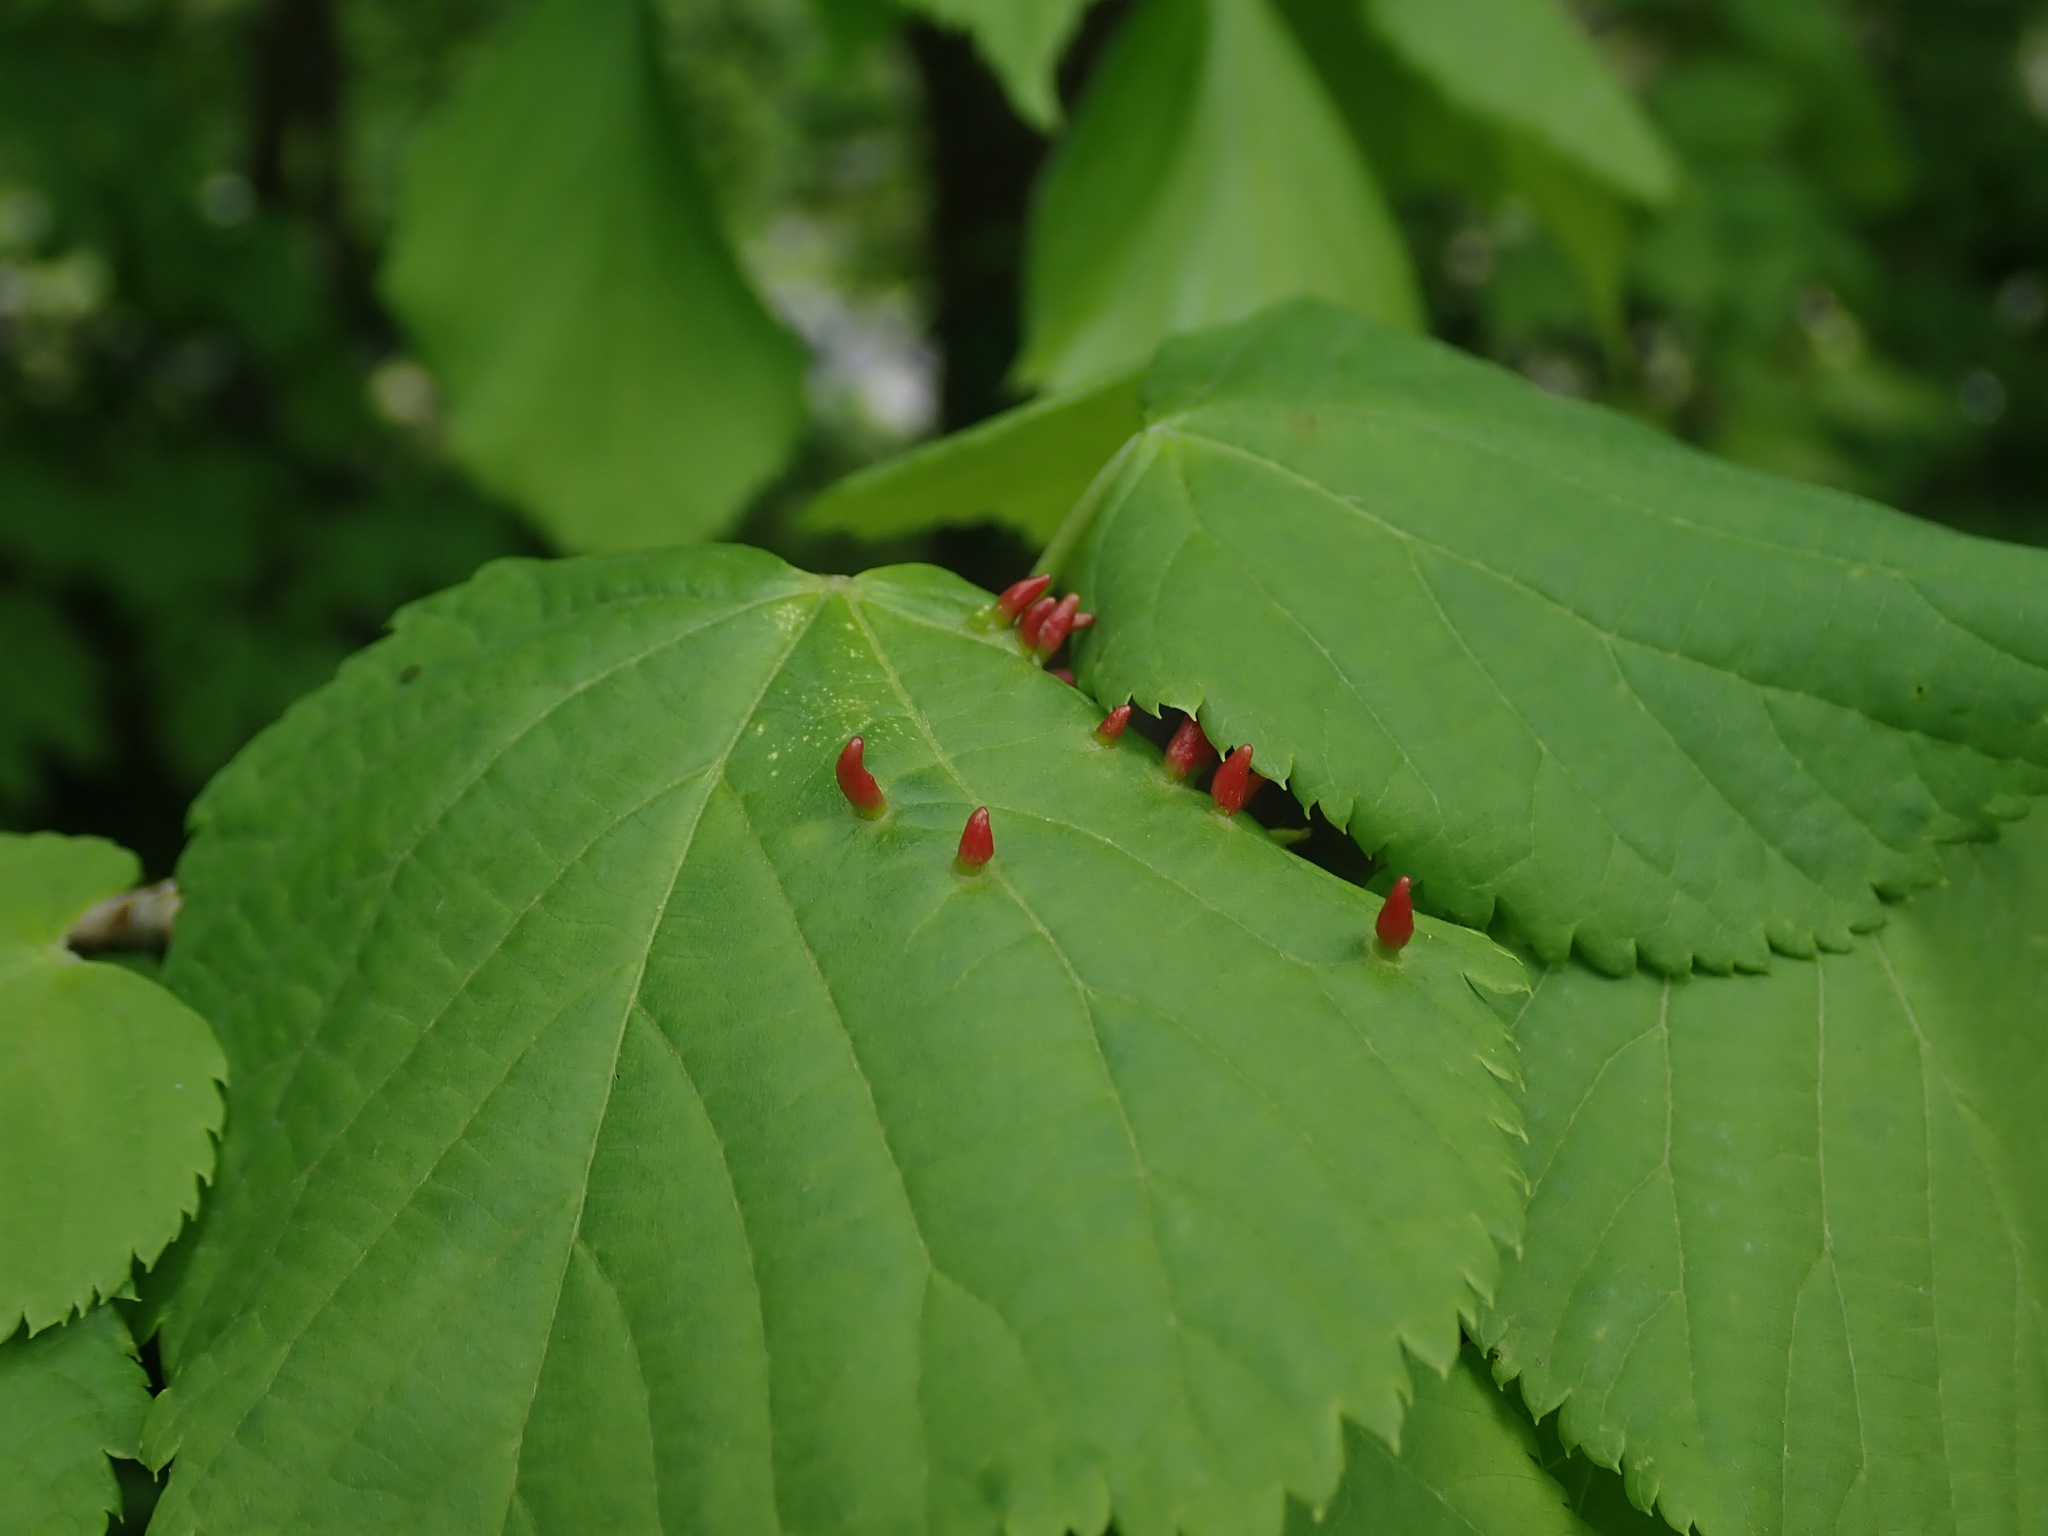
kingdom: Animalia
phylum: Arthropoda
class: Arachnida
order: Trombidiformes
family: Eriophyidae
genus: Eriophyes
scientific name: Eriophyes tiliae
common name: Red nail gall mite
